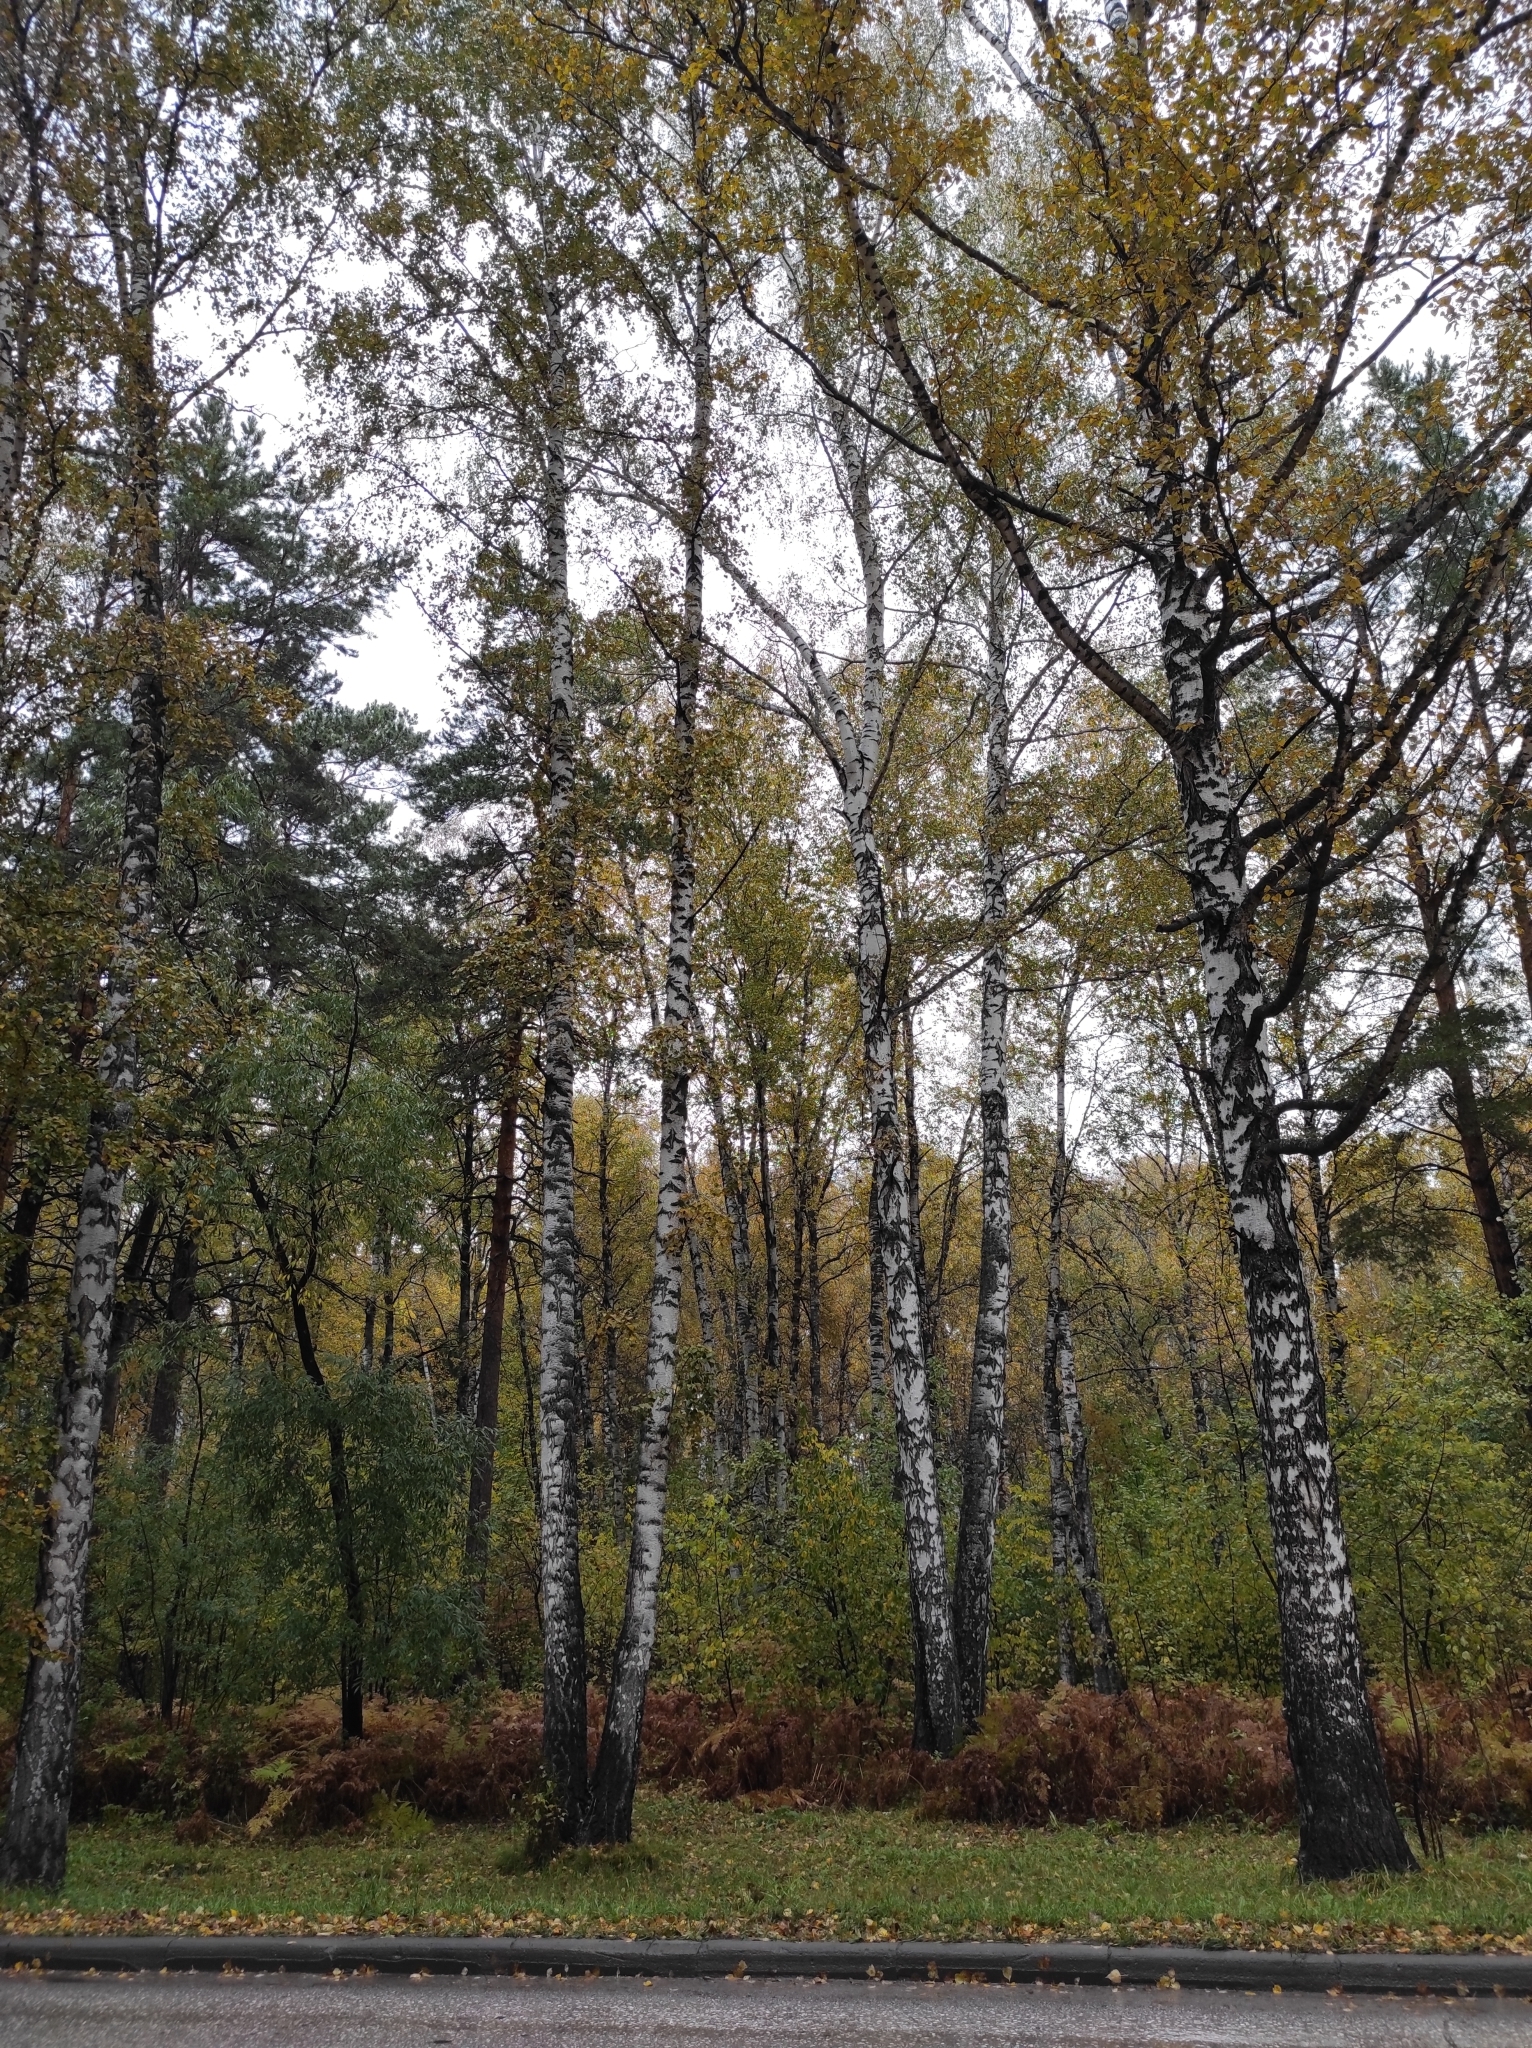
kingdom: Plantae
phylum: Tracheophyta
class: Magnoliopsida
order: Fagales
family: Betulaceae
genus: Betula
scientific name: Betula pendula
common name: Silver birch
